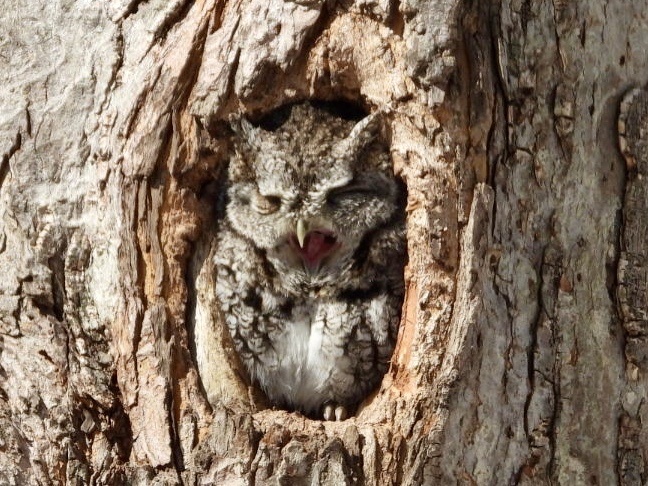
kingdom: Animalia
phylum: Chordata
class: Aves
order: Strigiformes
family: Strigidae
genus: Megascops
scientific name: Megascops asio
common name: Eastern screech-owl
